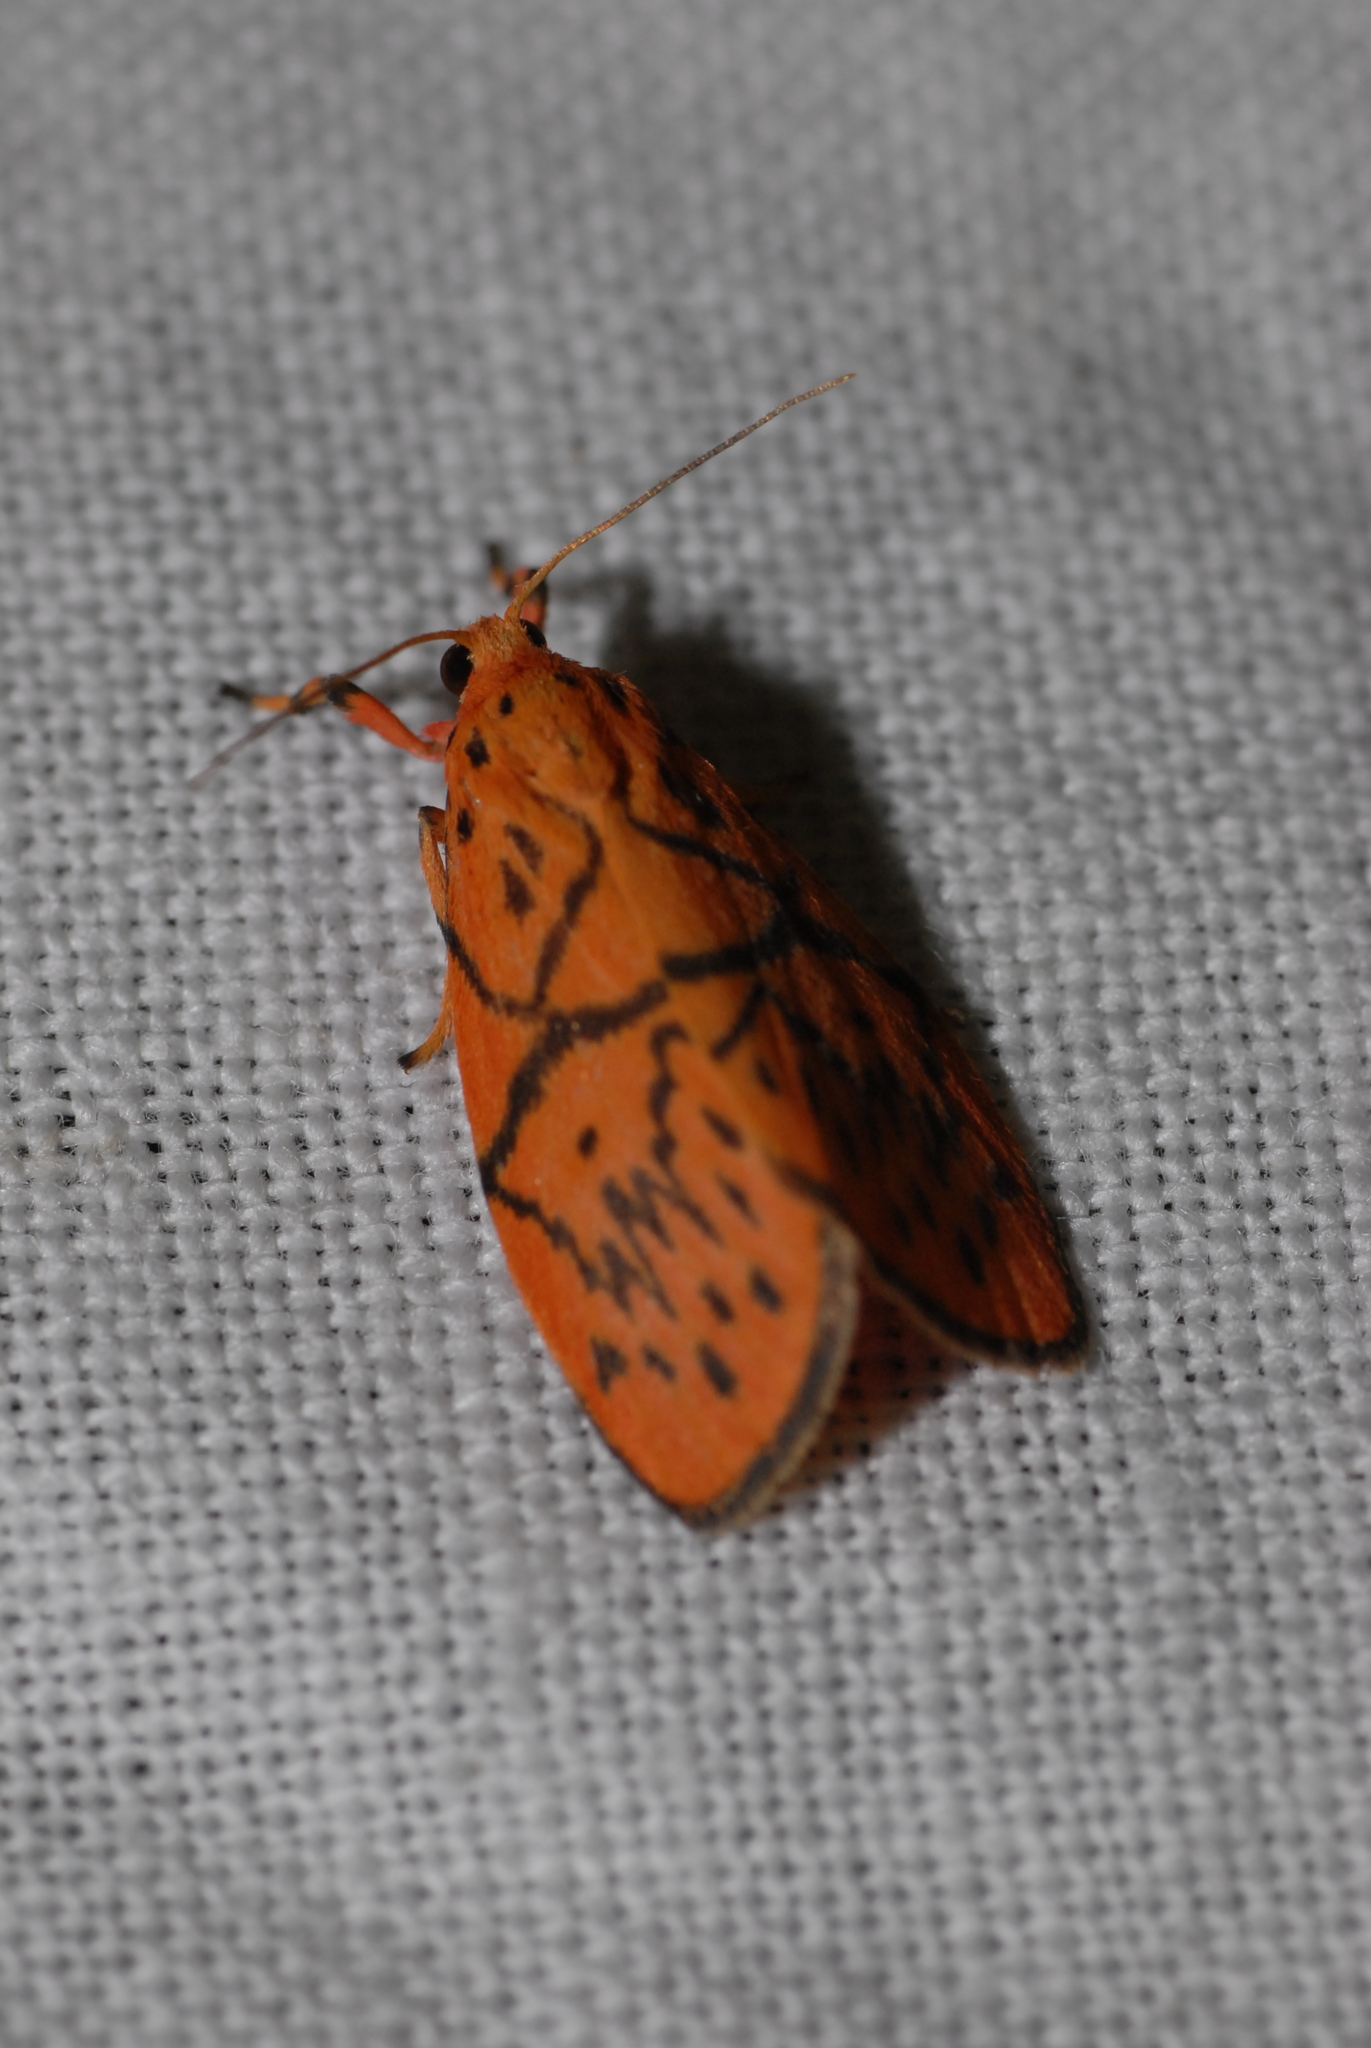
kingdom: Animalia
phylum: Arthropoda
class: Insecta
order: Lepidoptera
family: Erebidae
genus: Aberrasine
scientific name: Aberrasine aberrans
